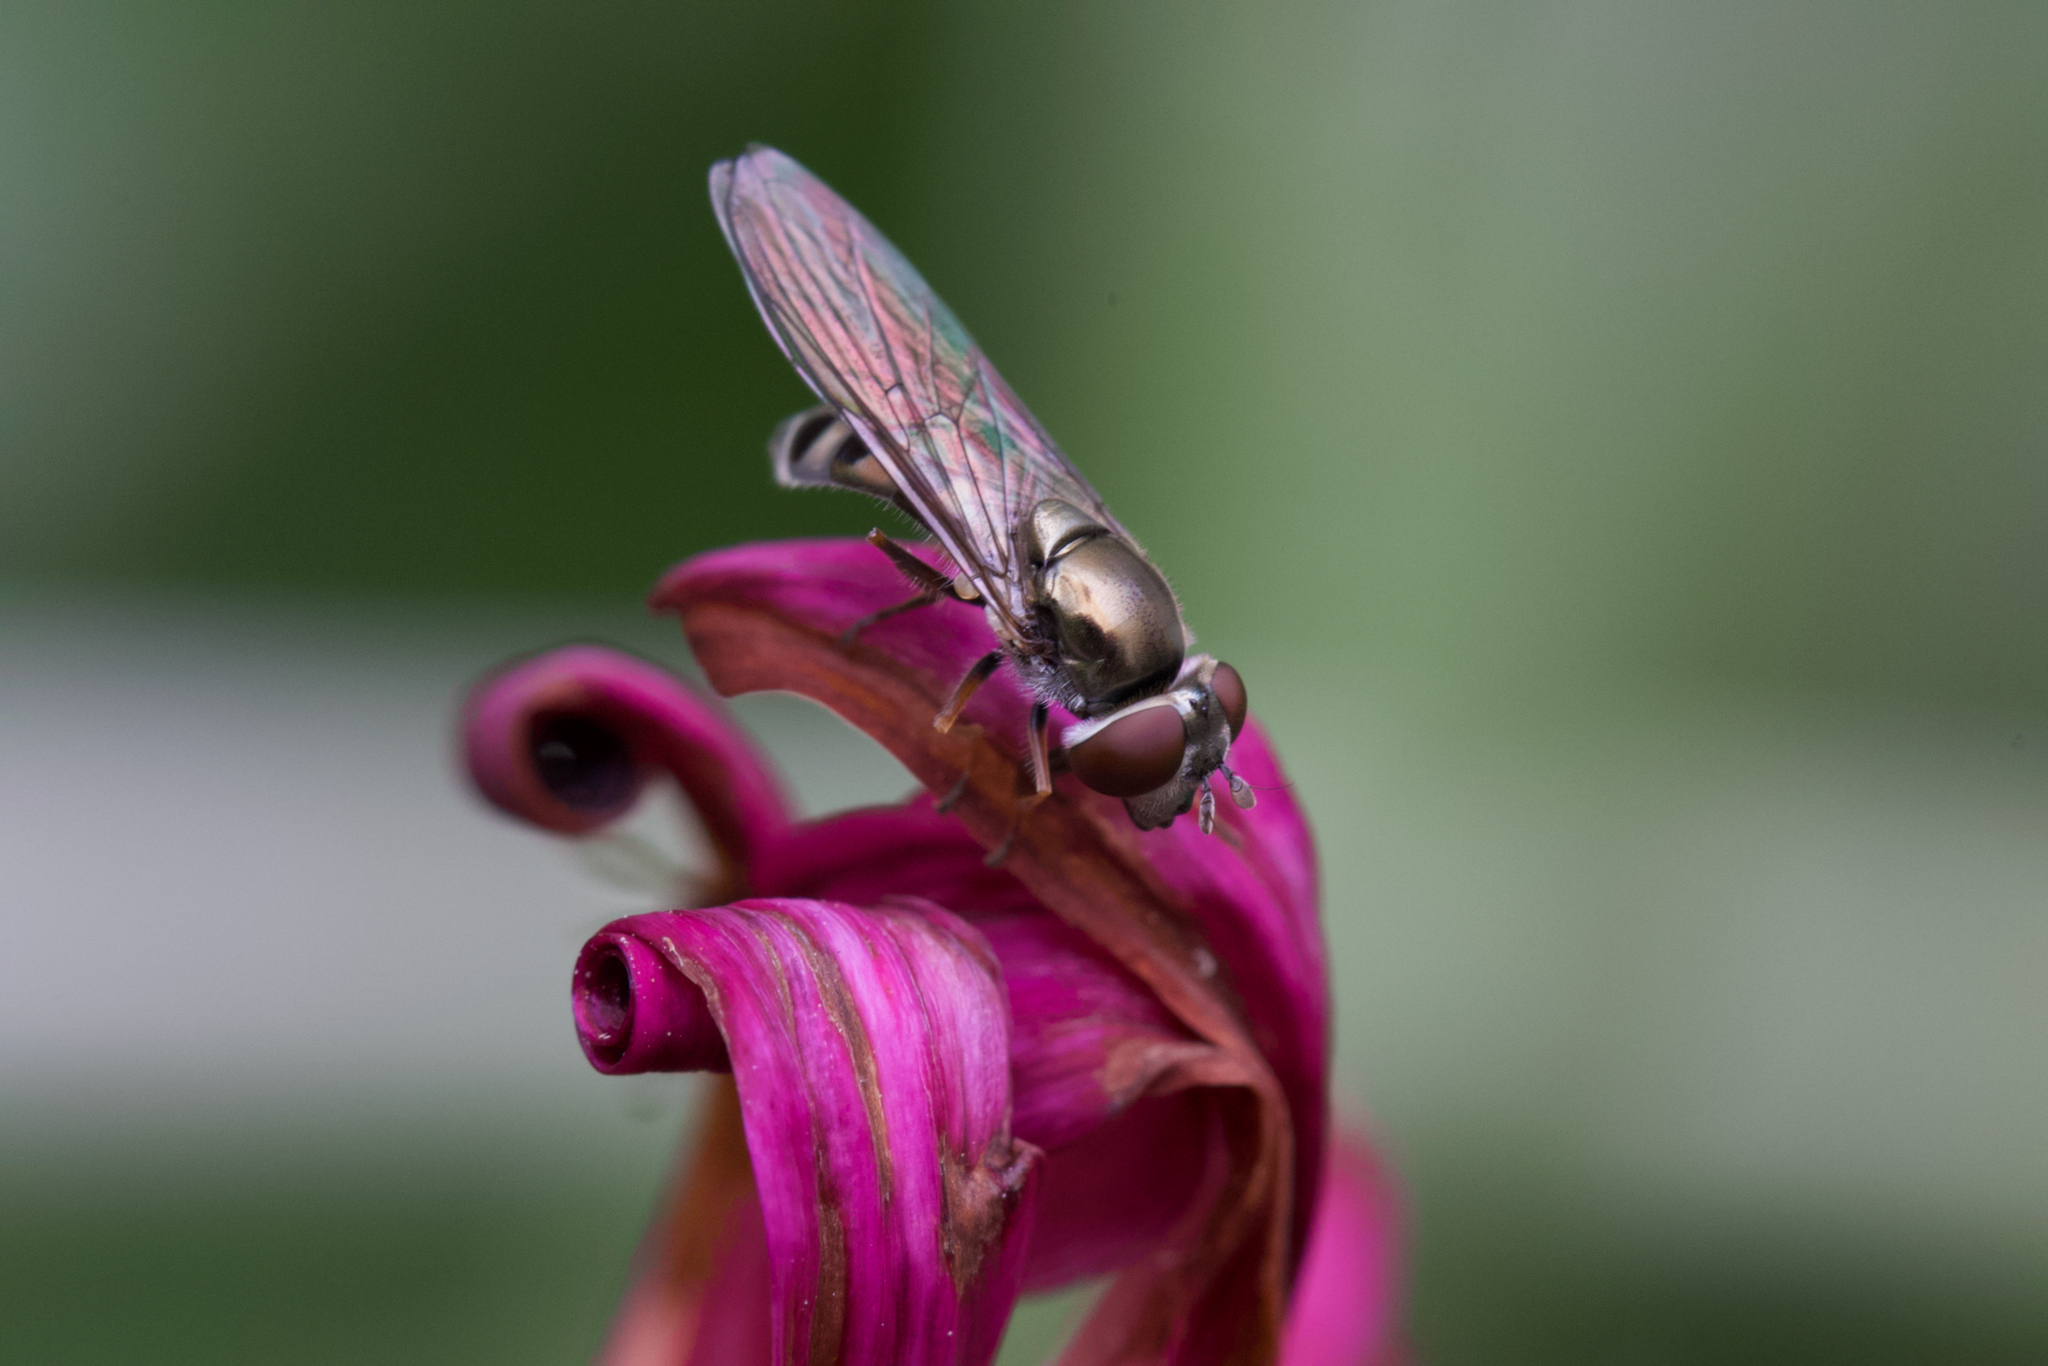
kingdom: Animalia
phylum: Arthropoda
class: Insecta
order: Diptera
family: Syrphidae
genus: Platycheirus
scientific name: Platycheirus trichopus
